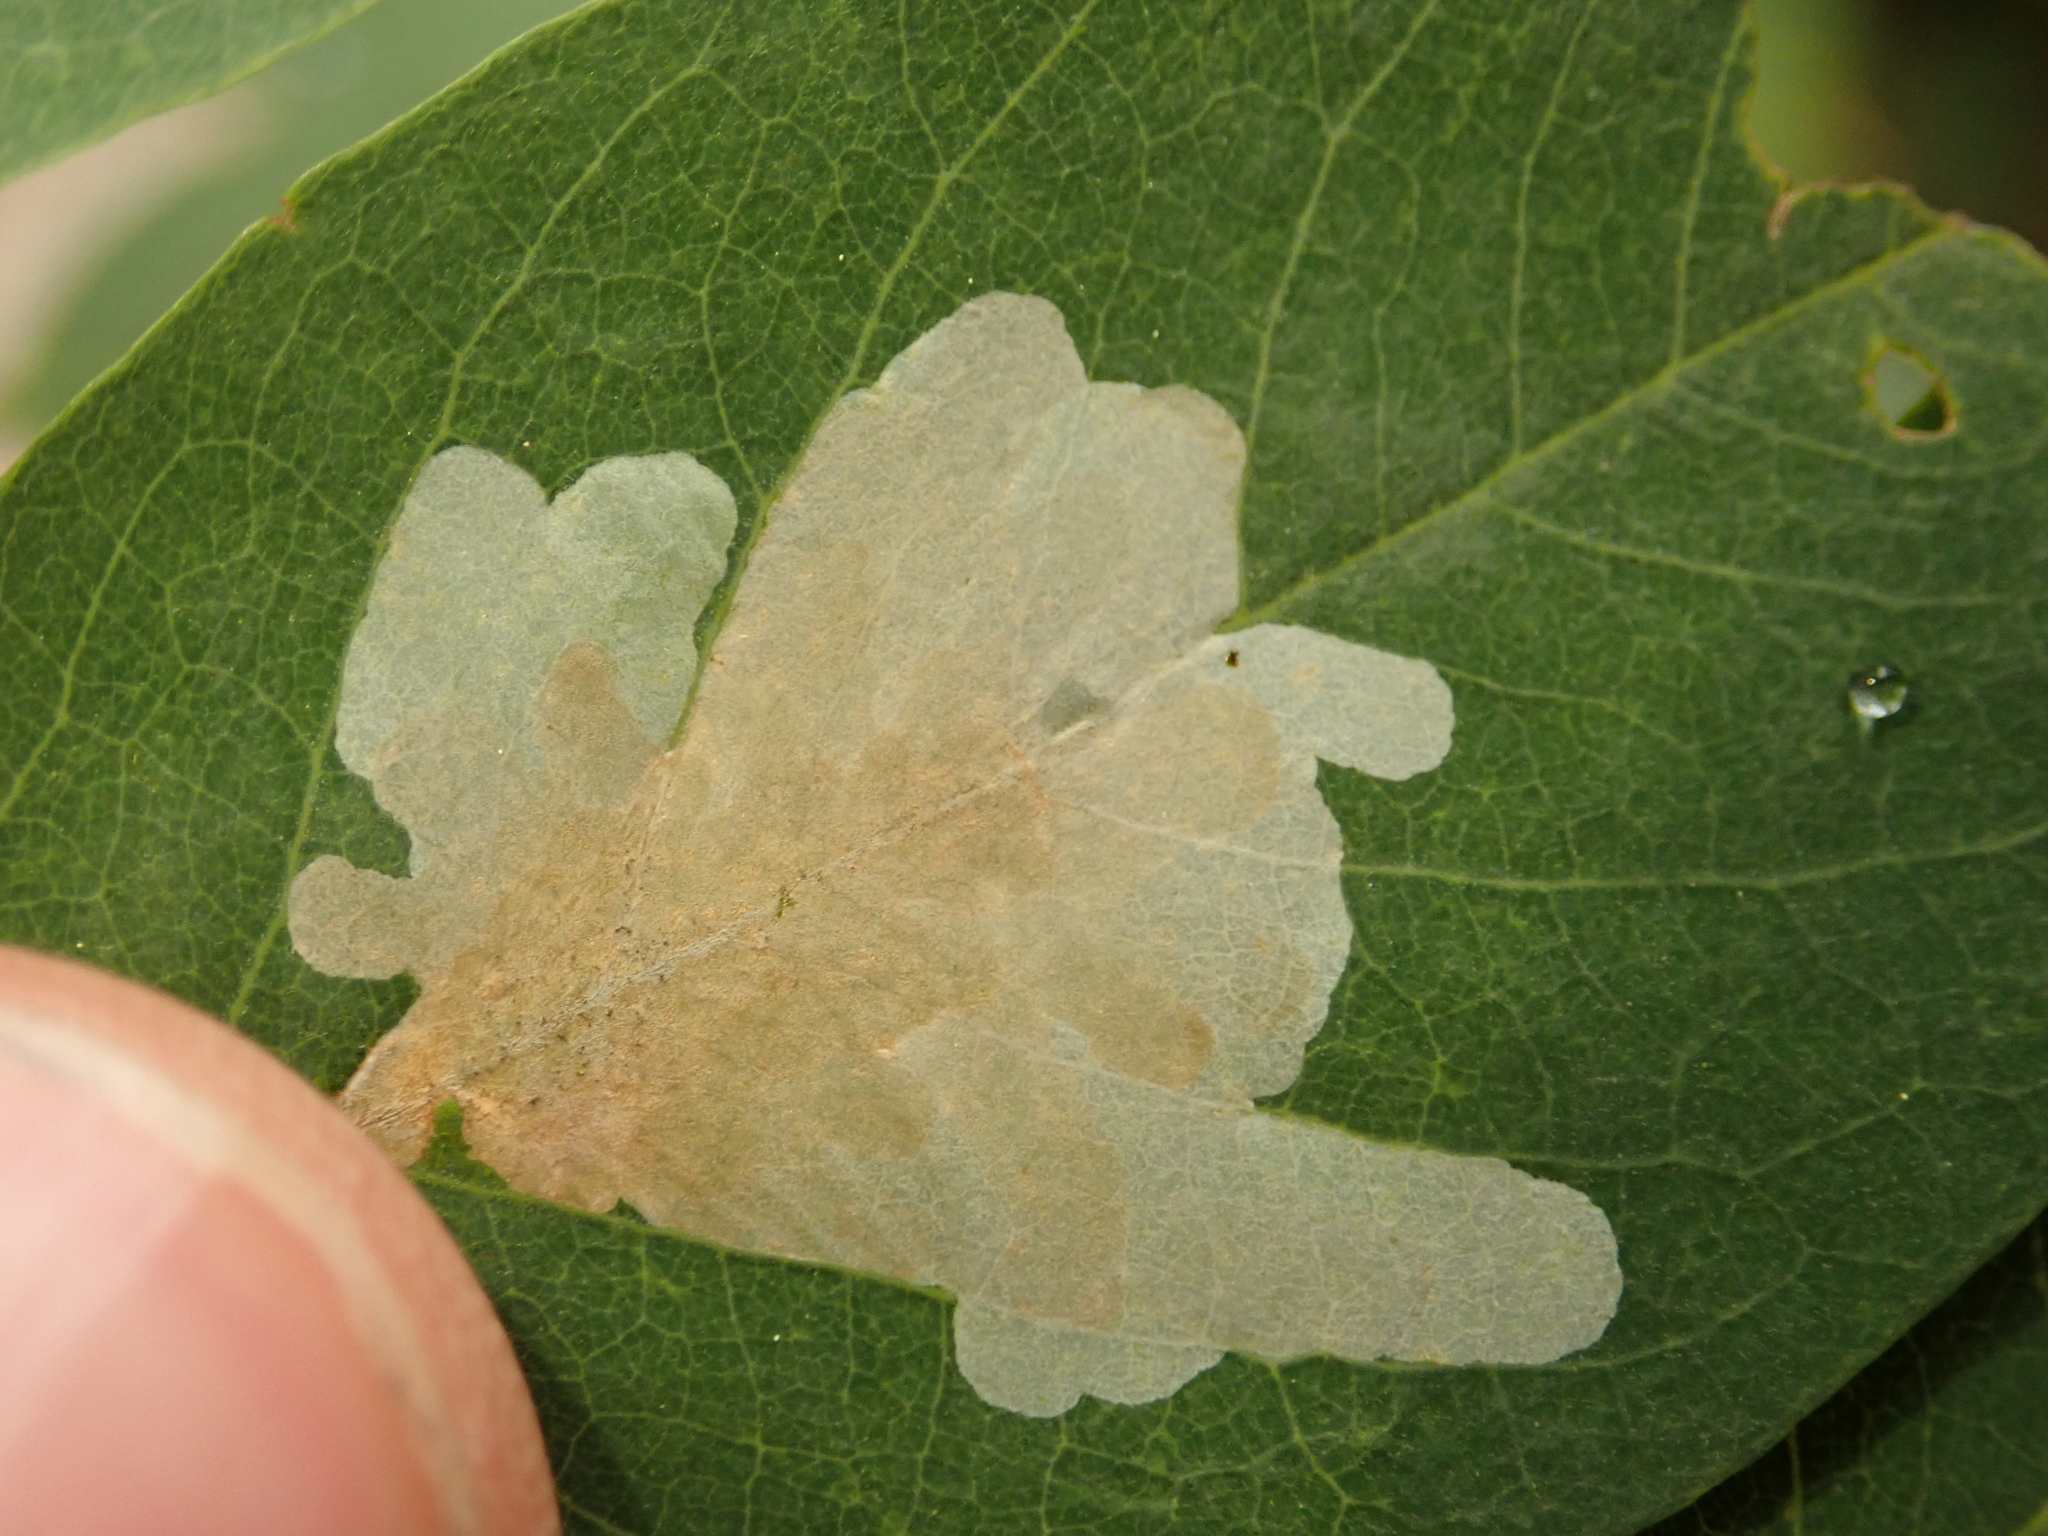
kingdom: Animalia
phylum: Arthropoda
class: Insecta
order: Lepidoptera
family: Gracillariidae
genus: Parectopa
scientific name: Parectopa robiniella
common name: Locust digitate leafminer
